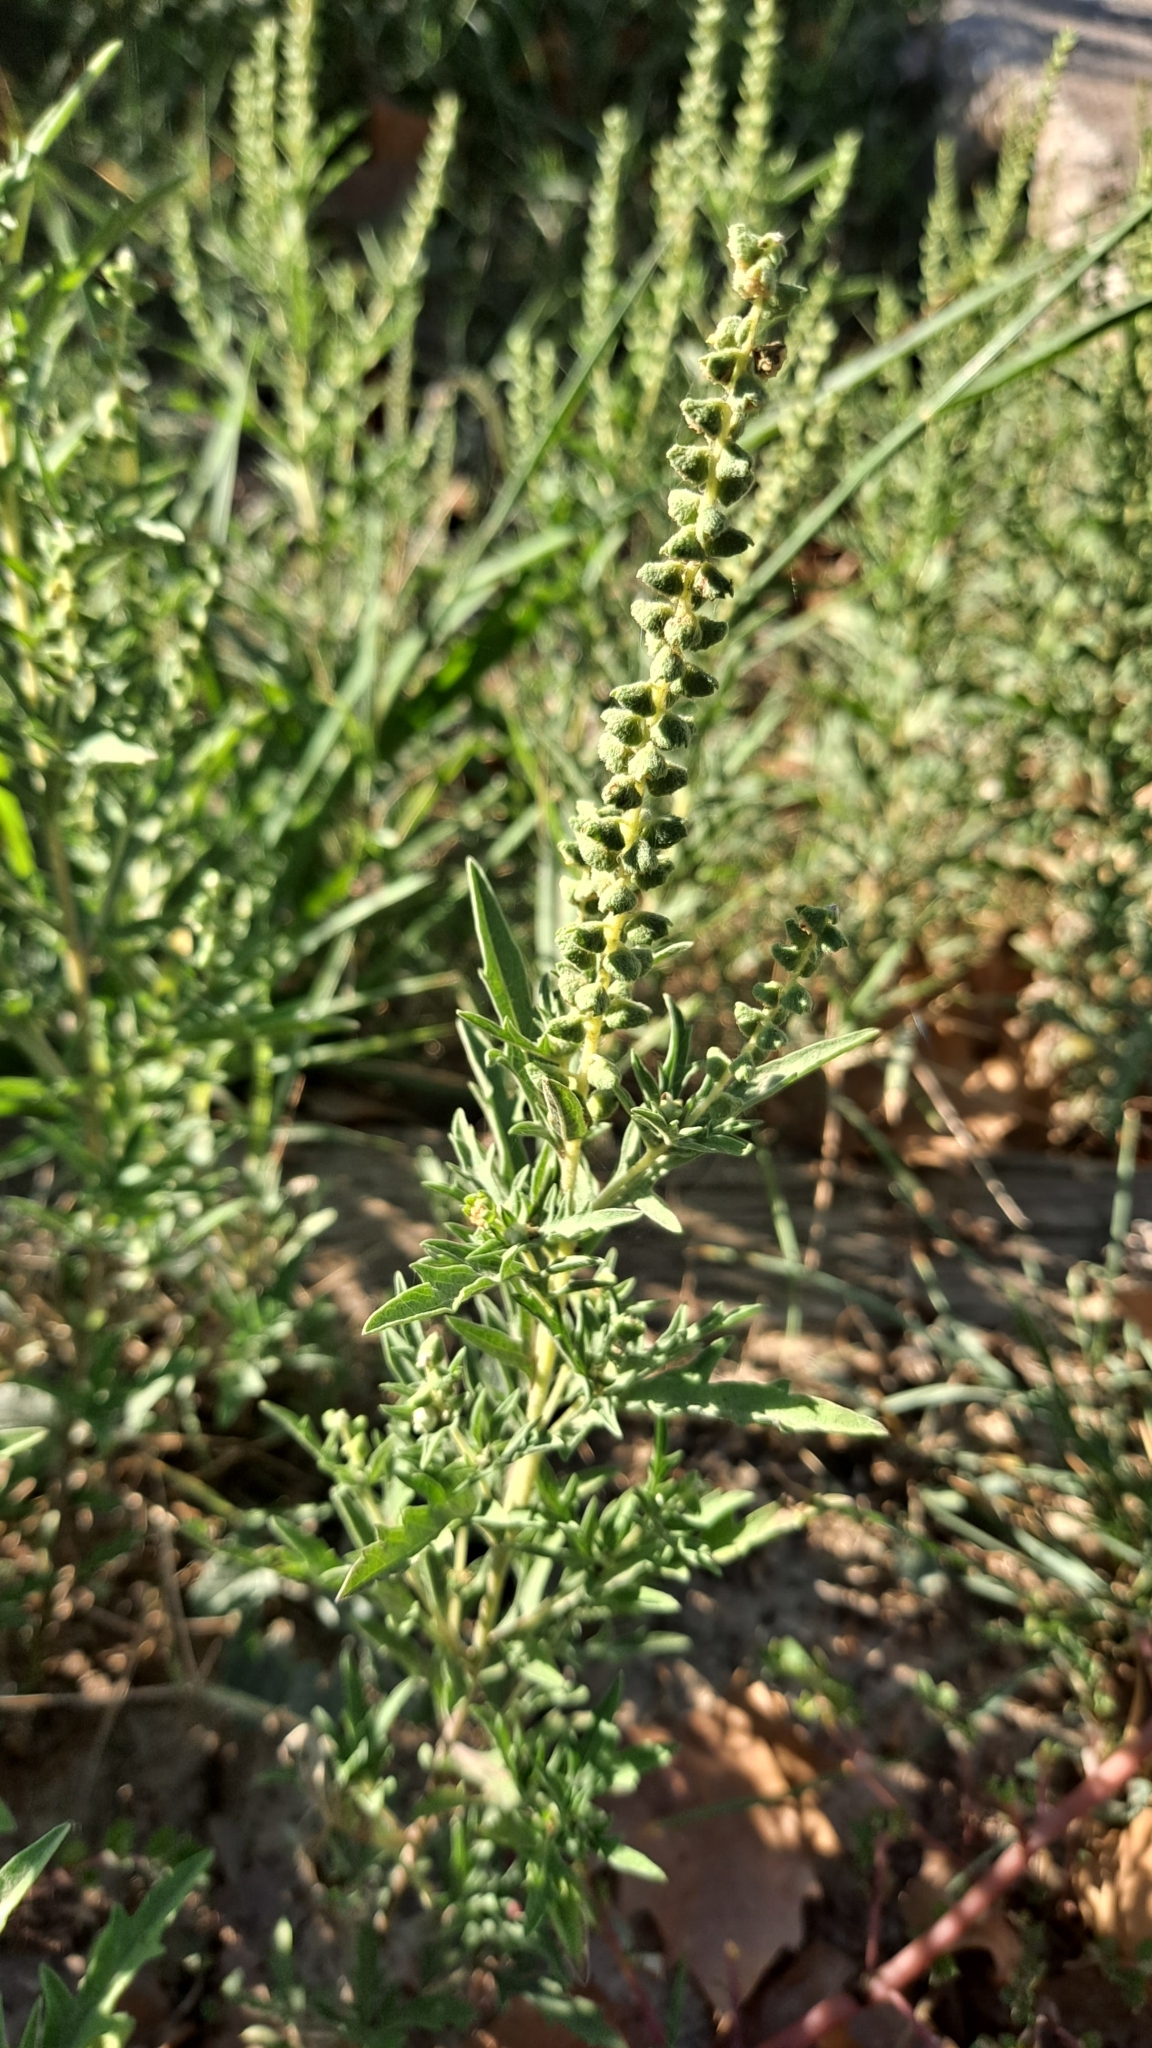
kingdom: Plantae
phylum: Tracheophyta
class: Magnoliopsida
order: Asterales
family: Asteraceae
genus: Ambrosia
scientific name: Ambrosia psilostachya
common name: Perennial ragweed
